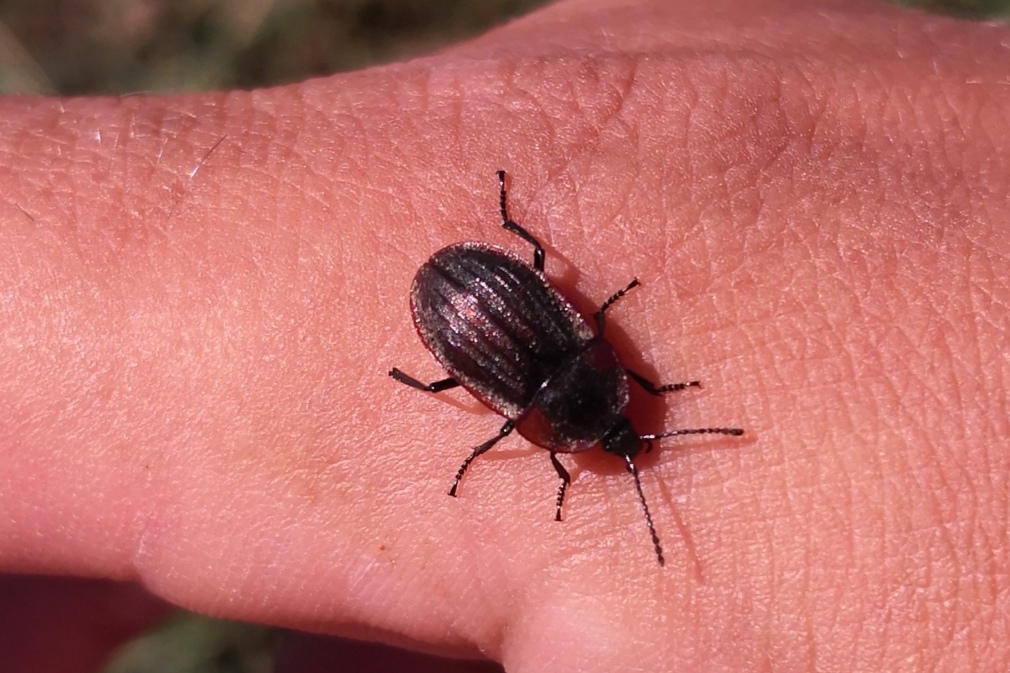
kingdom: Animalia
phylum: Arthropoda
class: Insecta
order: Coleoptera
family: Staphylinidae
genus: Silpha
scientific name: Silpha atrata
